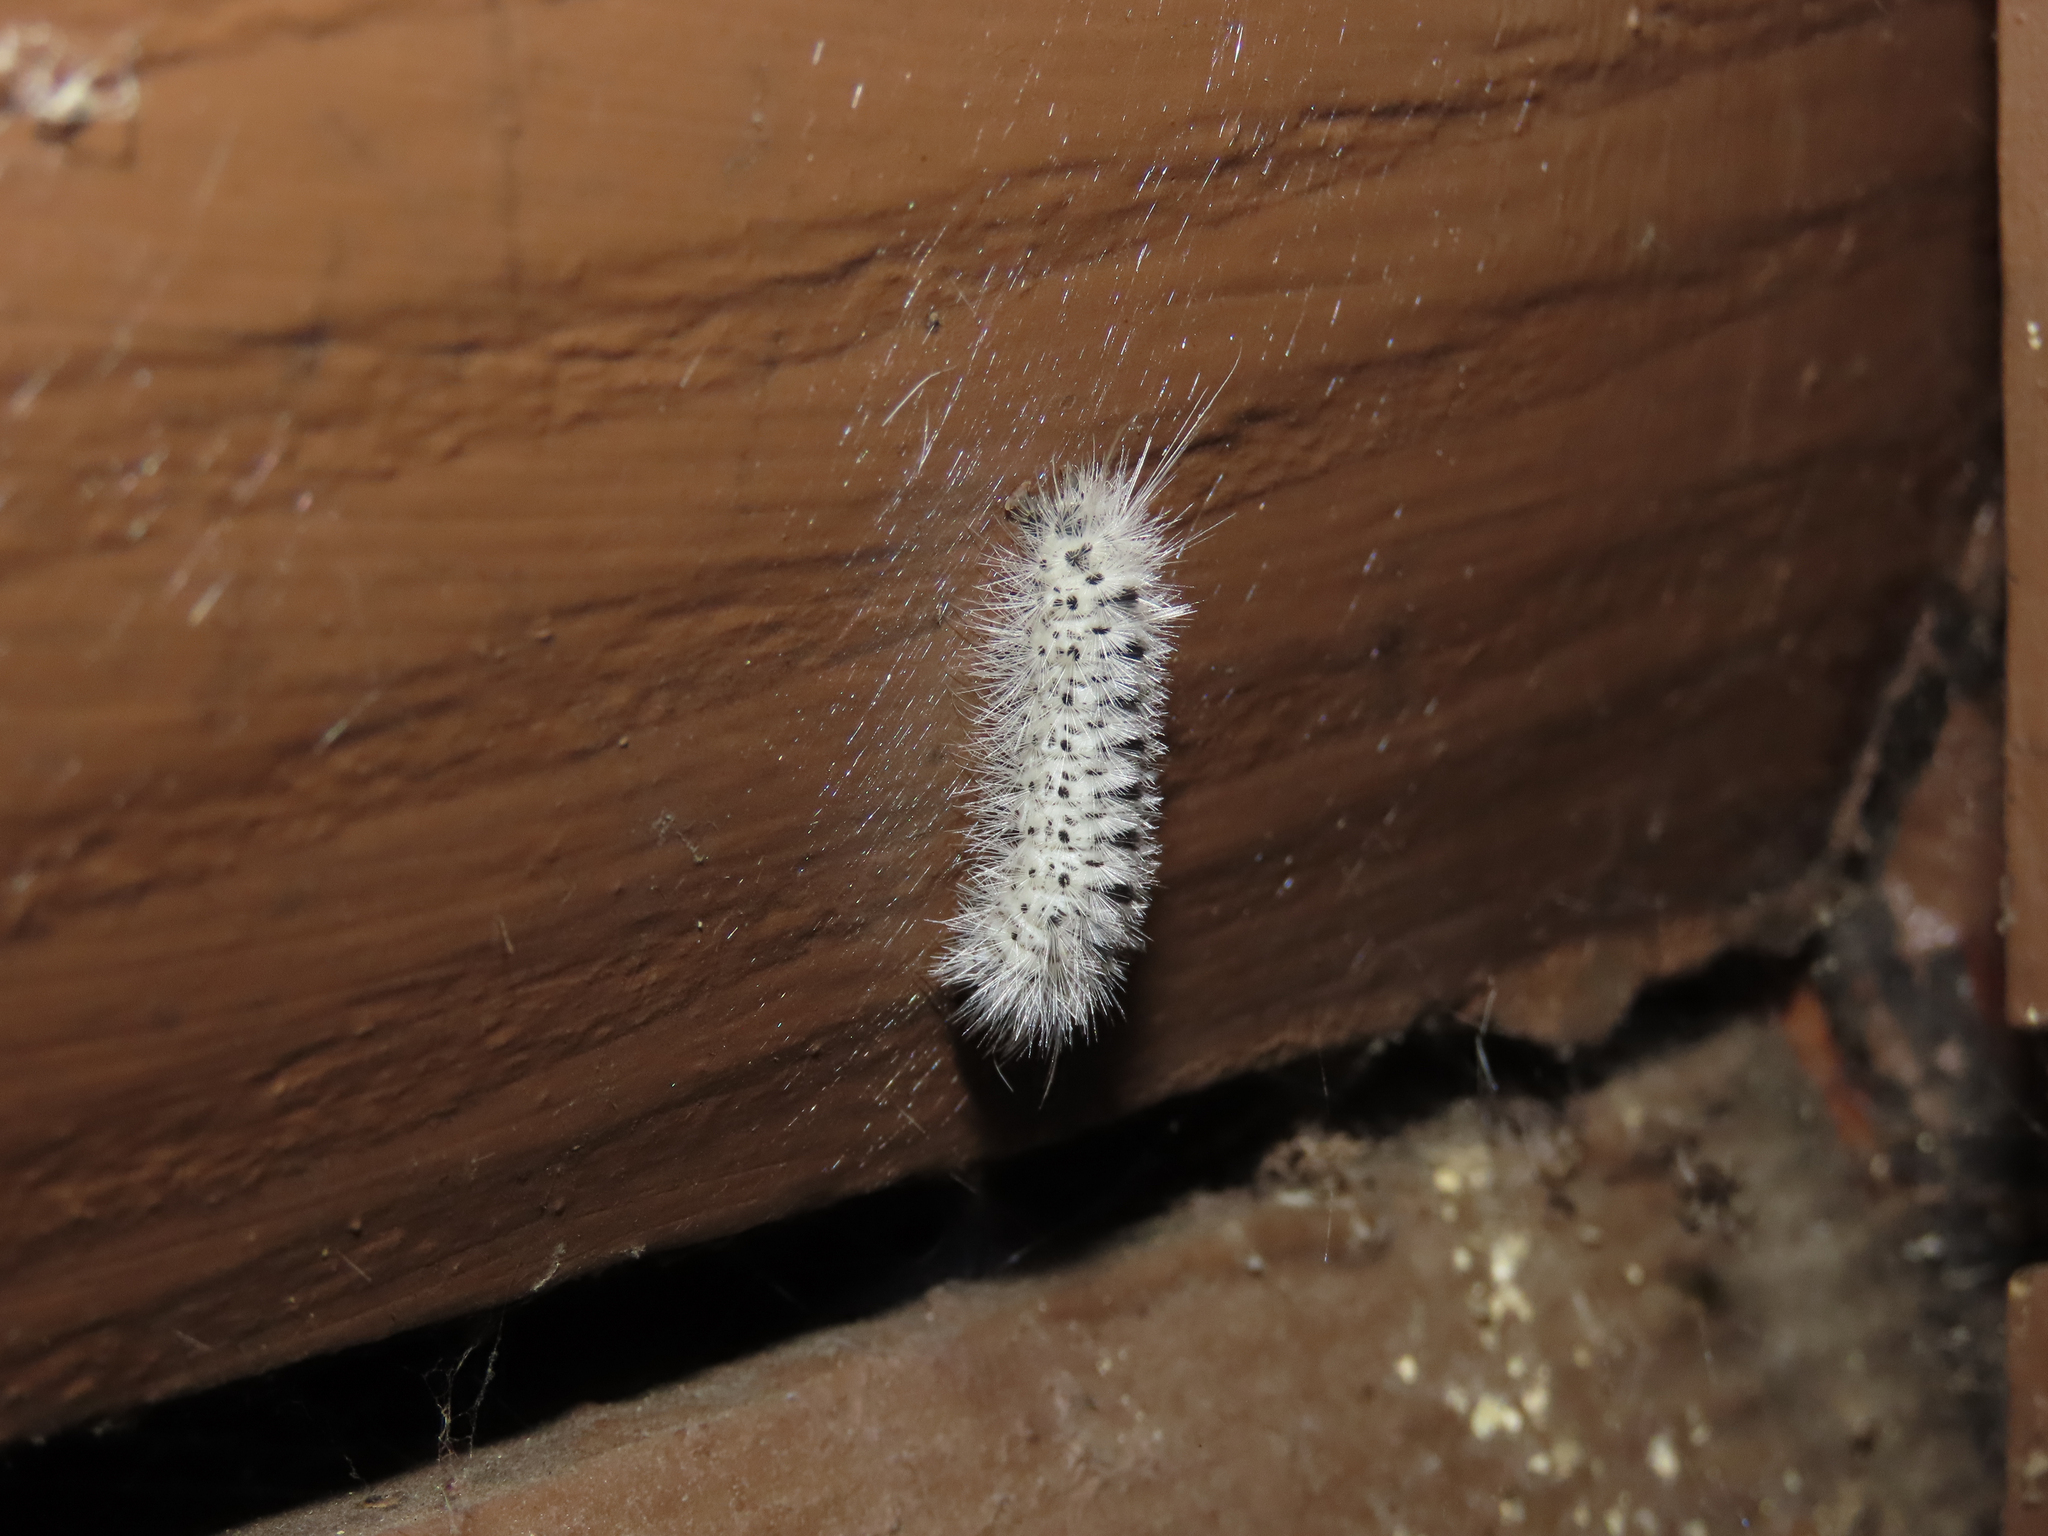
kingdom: Animalia
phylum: Arthropoda
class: Insecta
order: Lepidoptera
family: Erebidae
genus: Lophocampa
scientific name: Lophocampa caryae
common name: Hickory tussock moth
